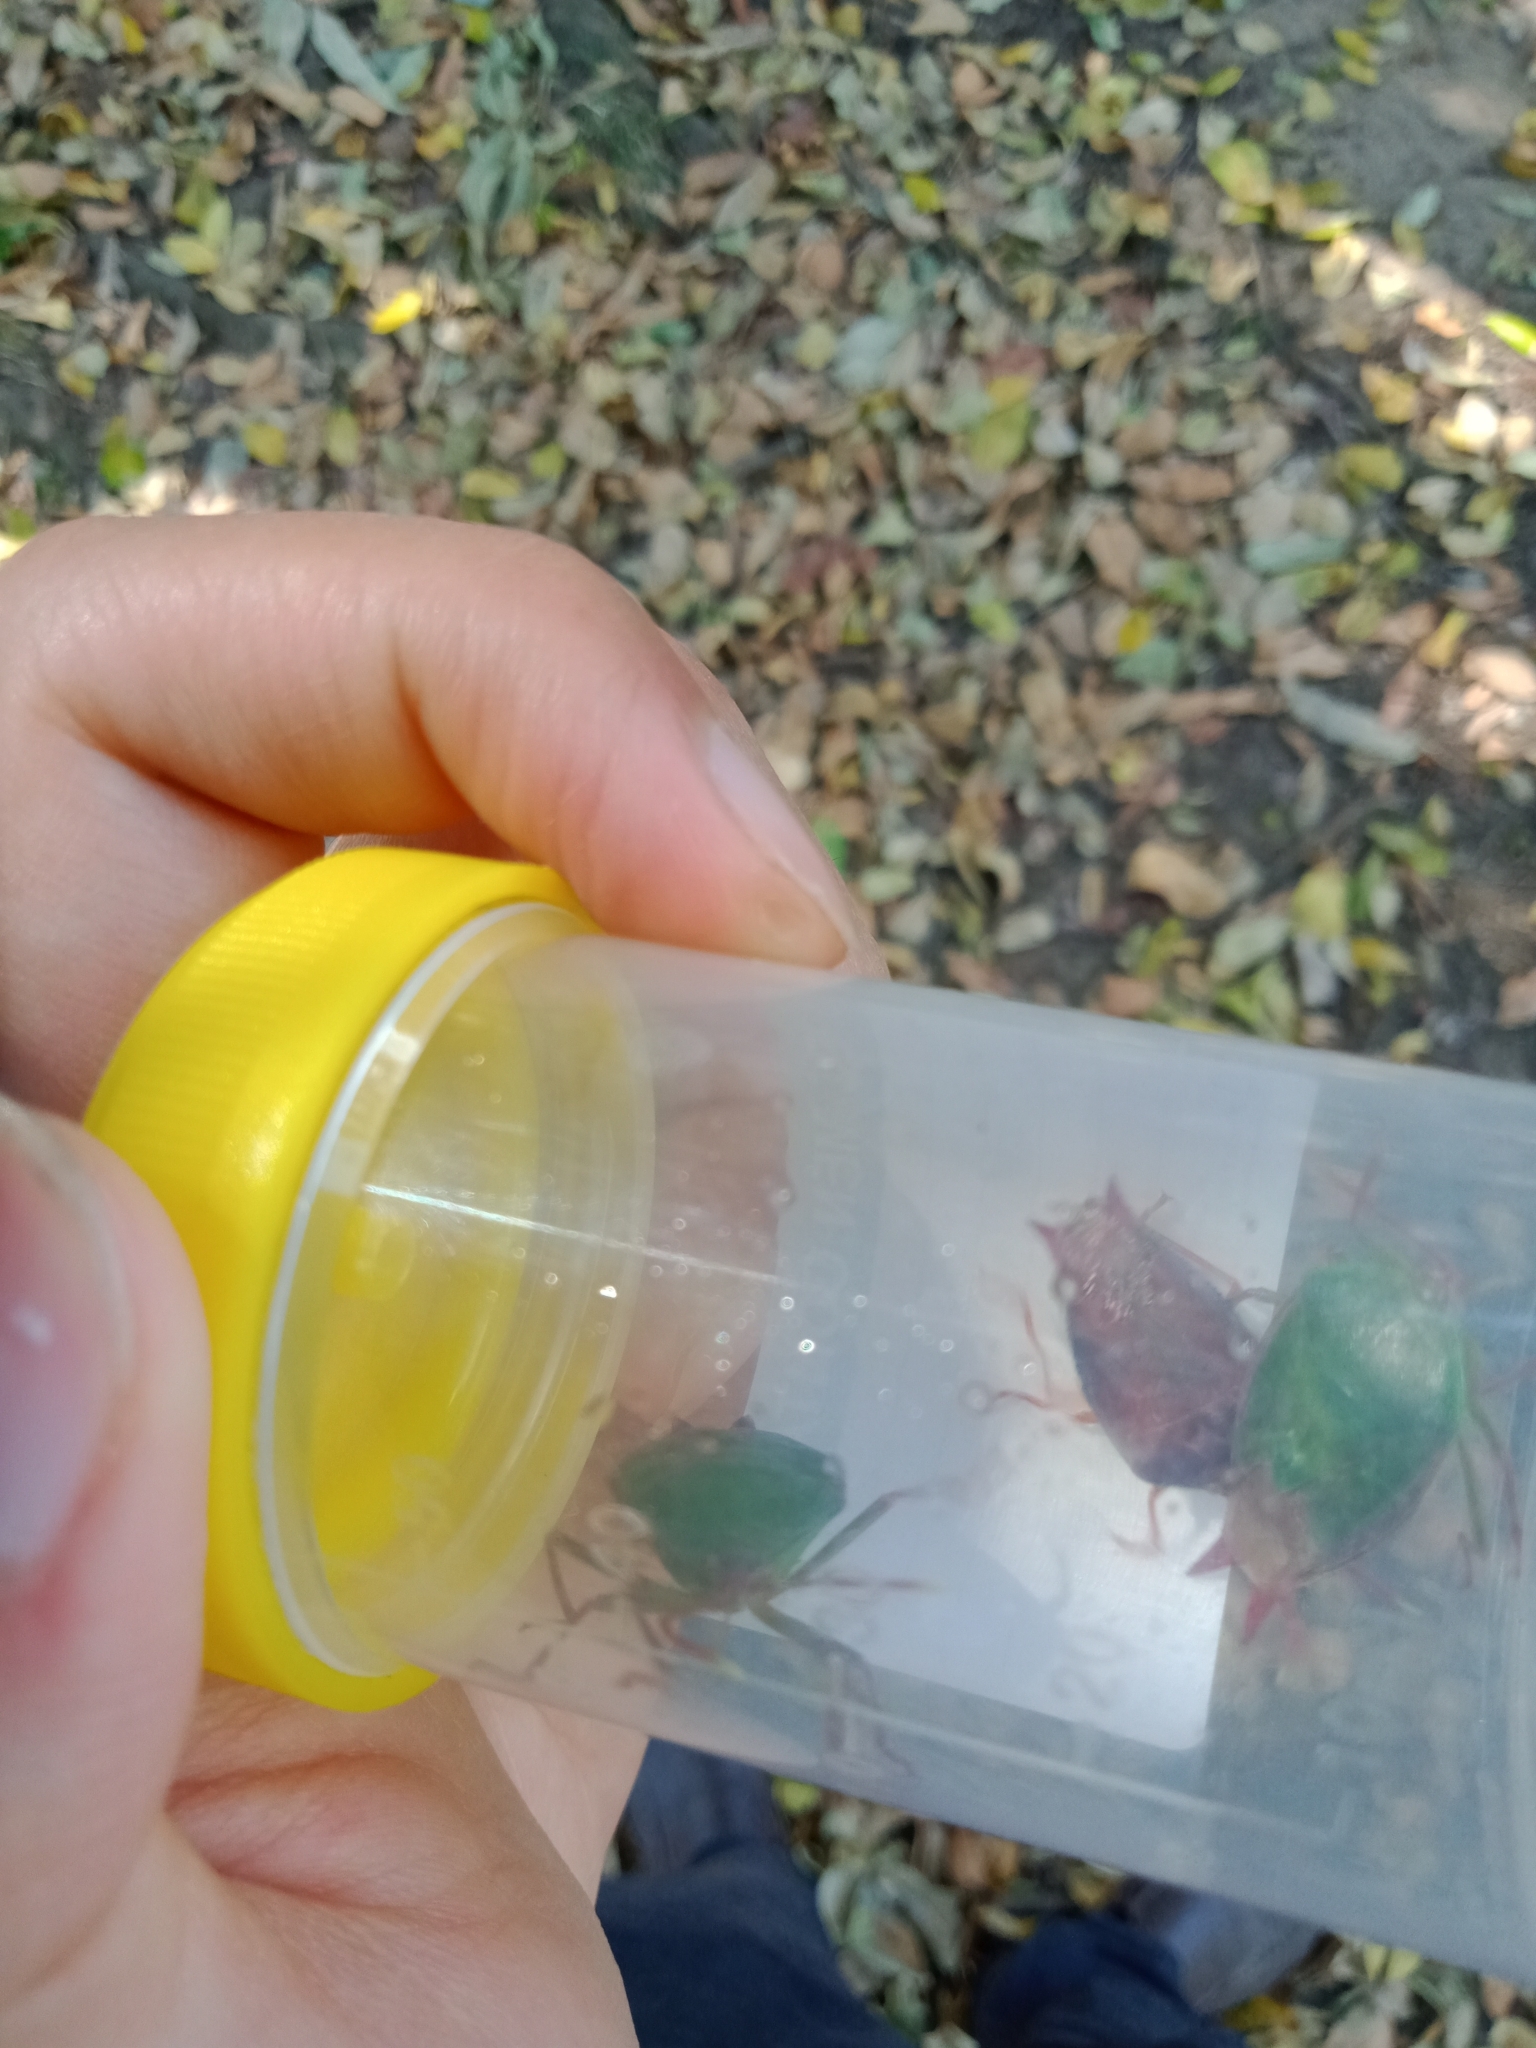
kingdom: Animalia
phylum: Arthropoda
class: Insecta
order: Hemiptera
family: Tessaratomidae
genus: Lyramorpha
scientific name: Lyramorpha rosea
